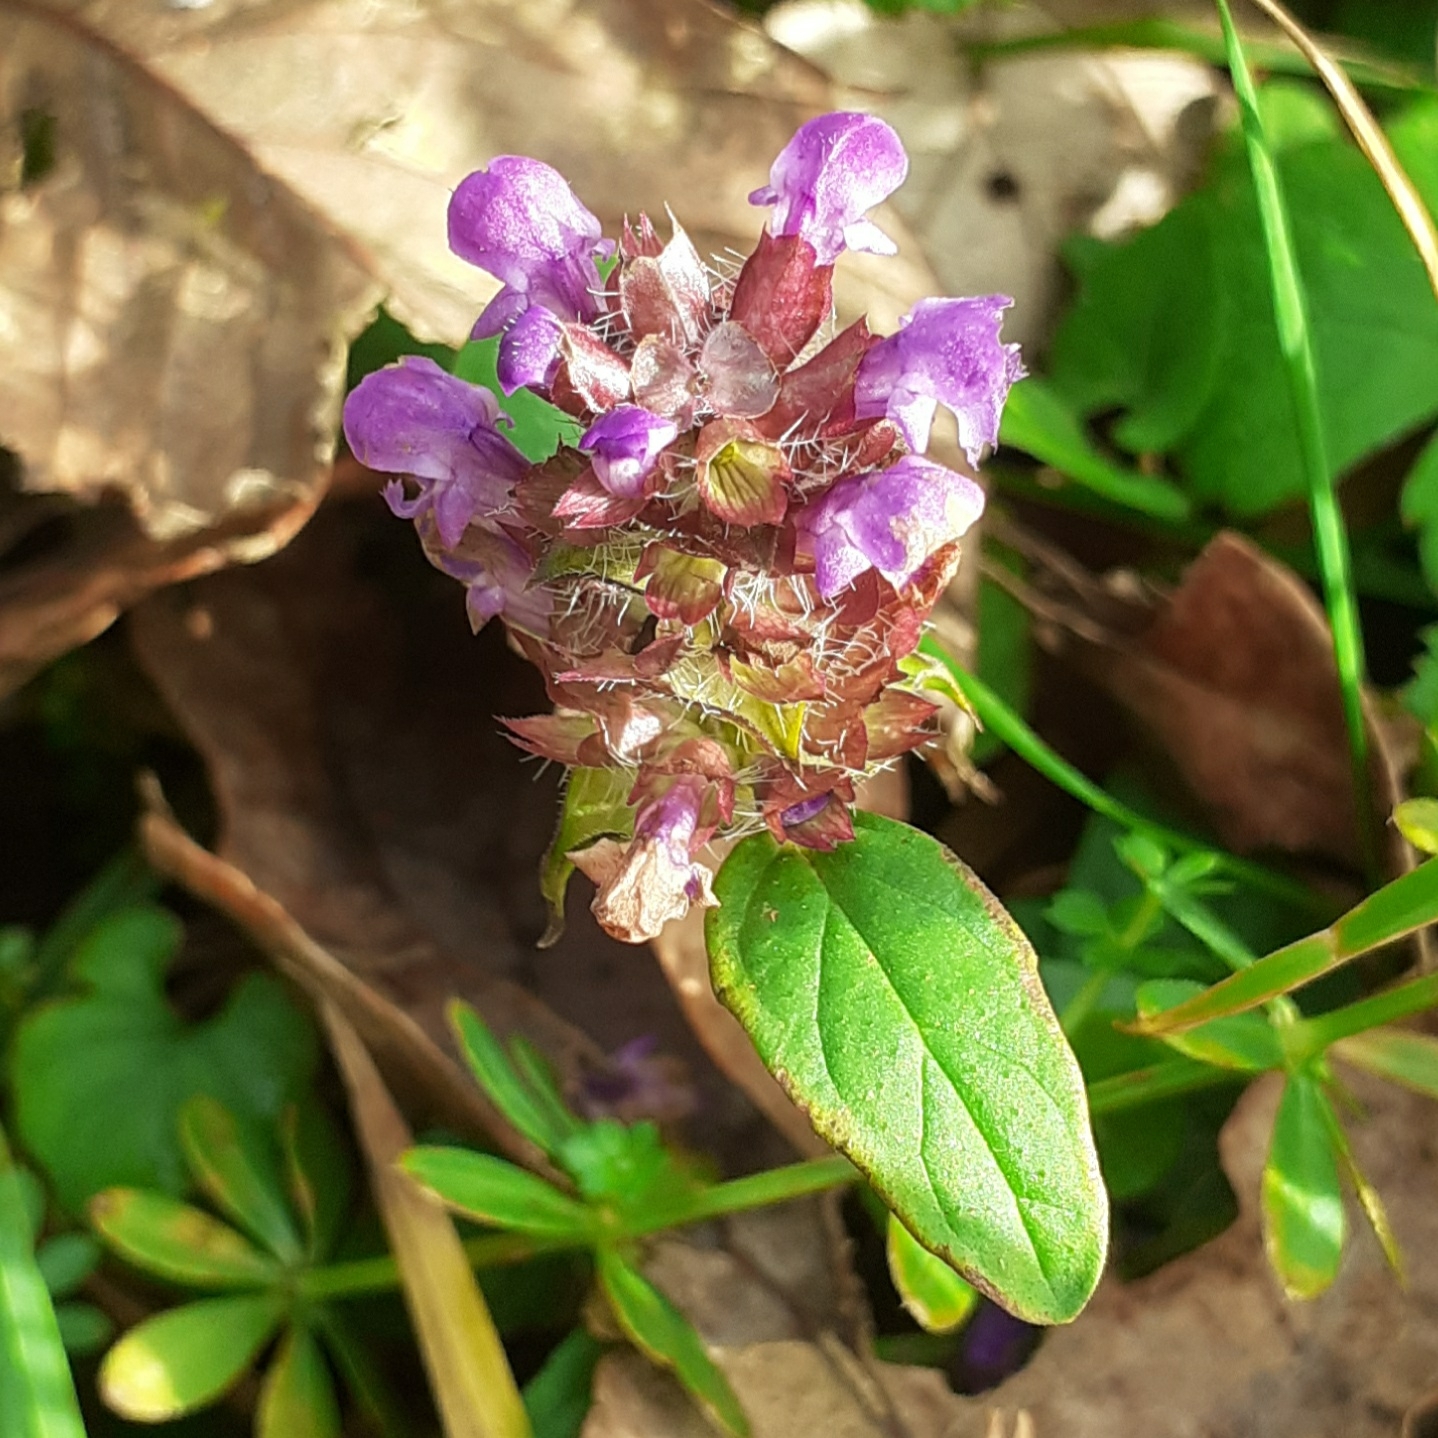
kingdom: Plantae
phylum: Tracheophyta
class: Magnoliopsida
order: Lamiales
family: Lamiaceae
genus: Prunella
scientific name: Prunella vulgaris
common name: Heal-all
